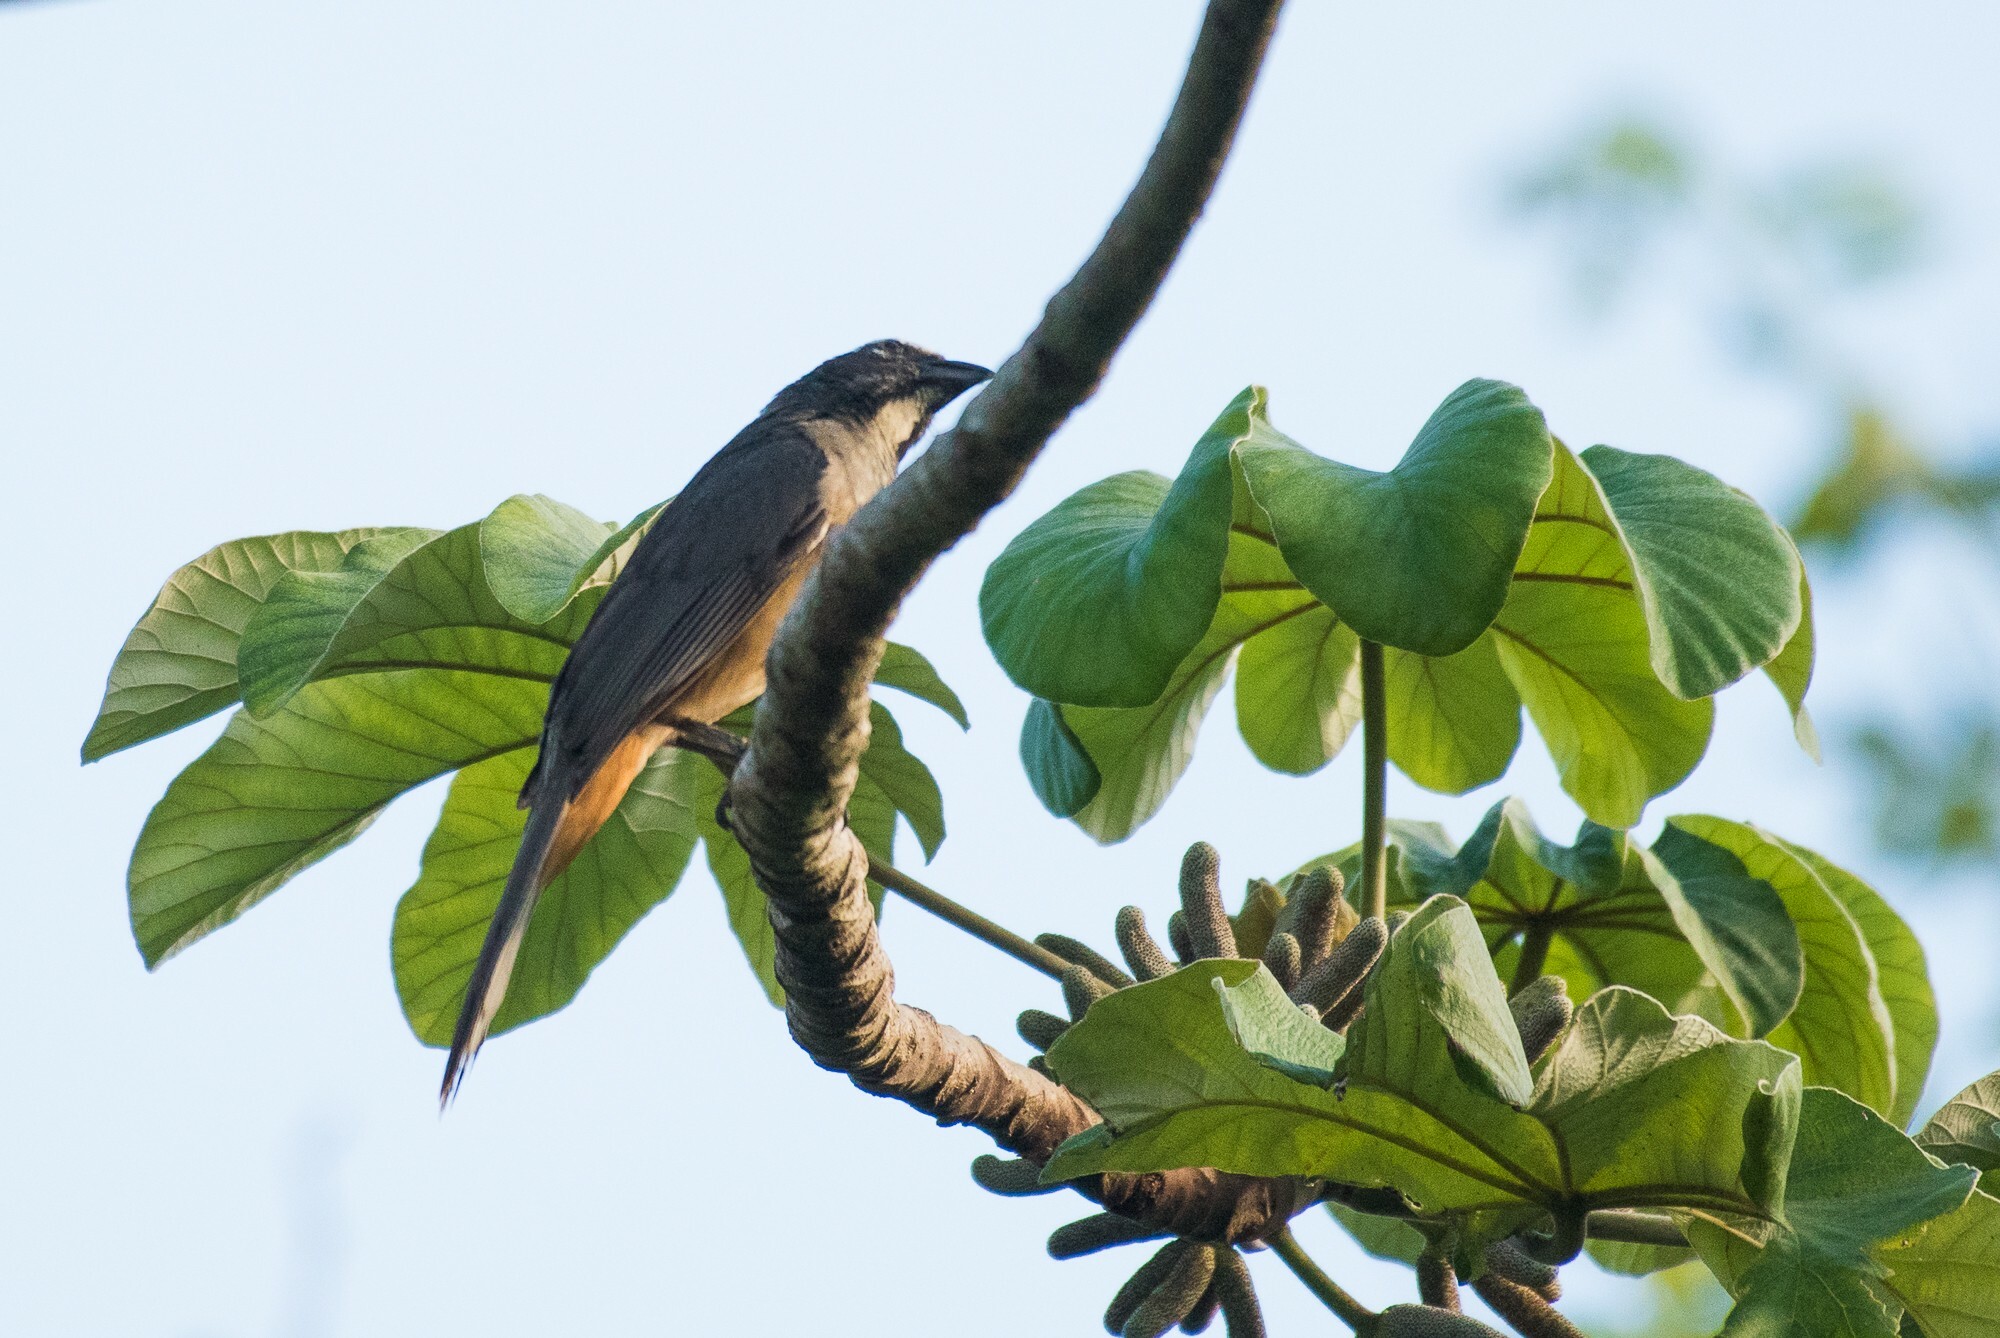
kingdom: Animalia
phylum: Chordata
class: Aves
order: Passeriformes
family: Thraupidae
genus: Saltator
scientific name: Saltator grandis
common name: Cinnamon-bellied saltator
